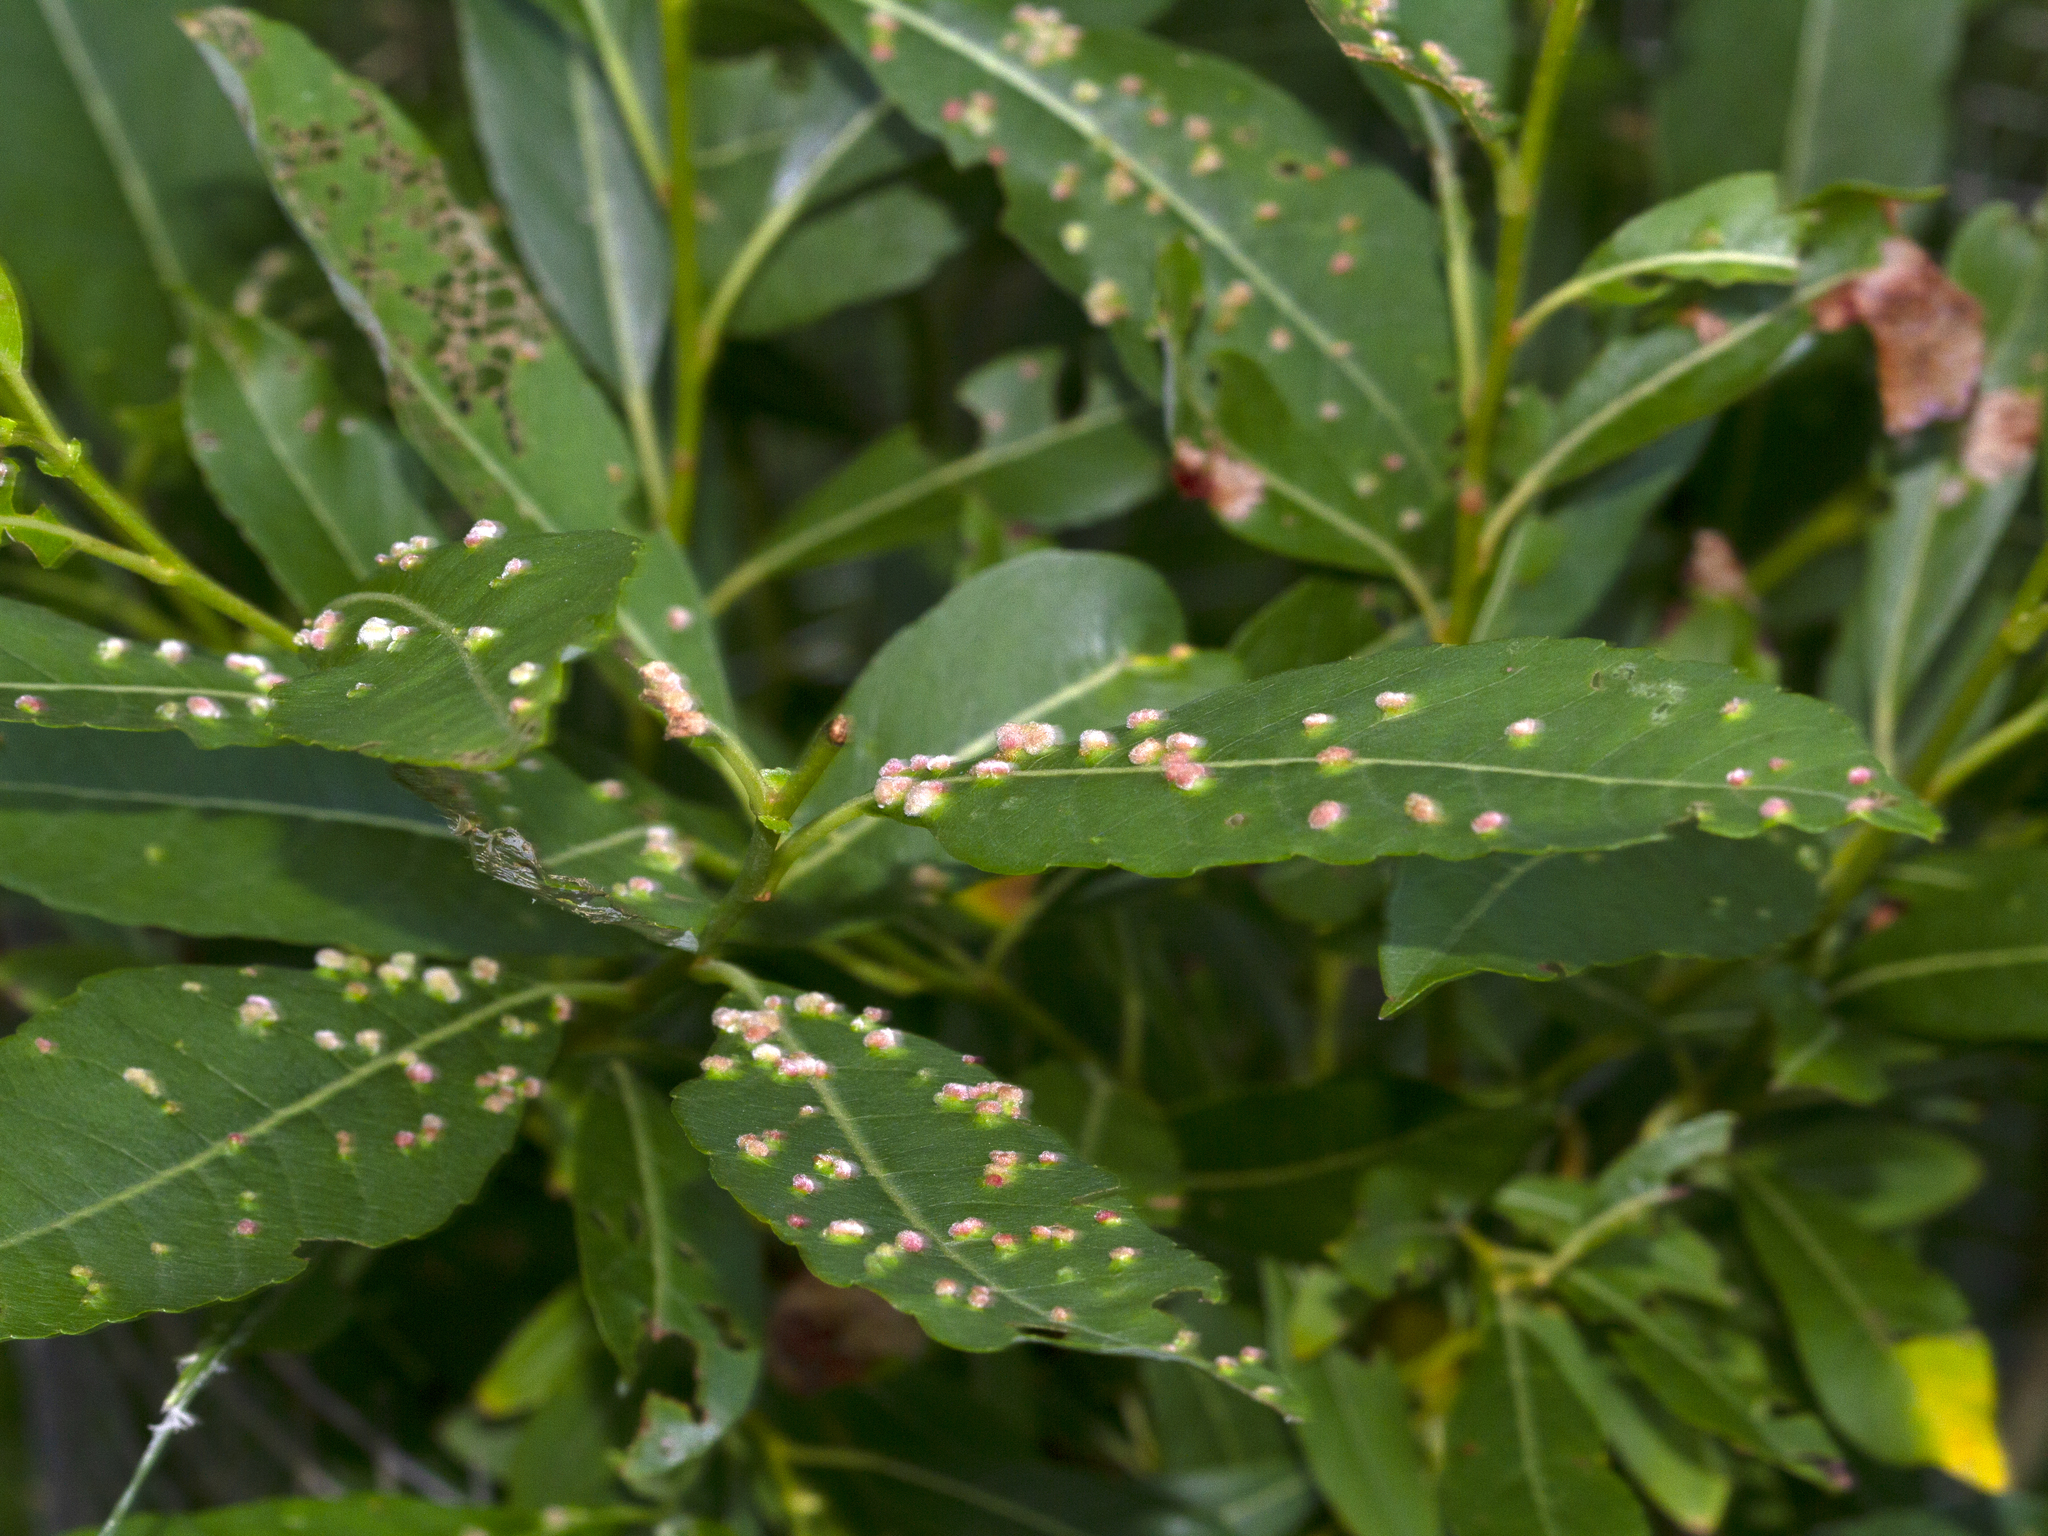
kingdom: Animalia
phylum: Arthropoda
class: Arachnida
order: Trombidiformes
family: Eriophyidae
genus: Aculus
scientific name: Aculus tetanothrix
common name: Willow bead gall mite
